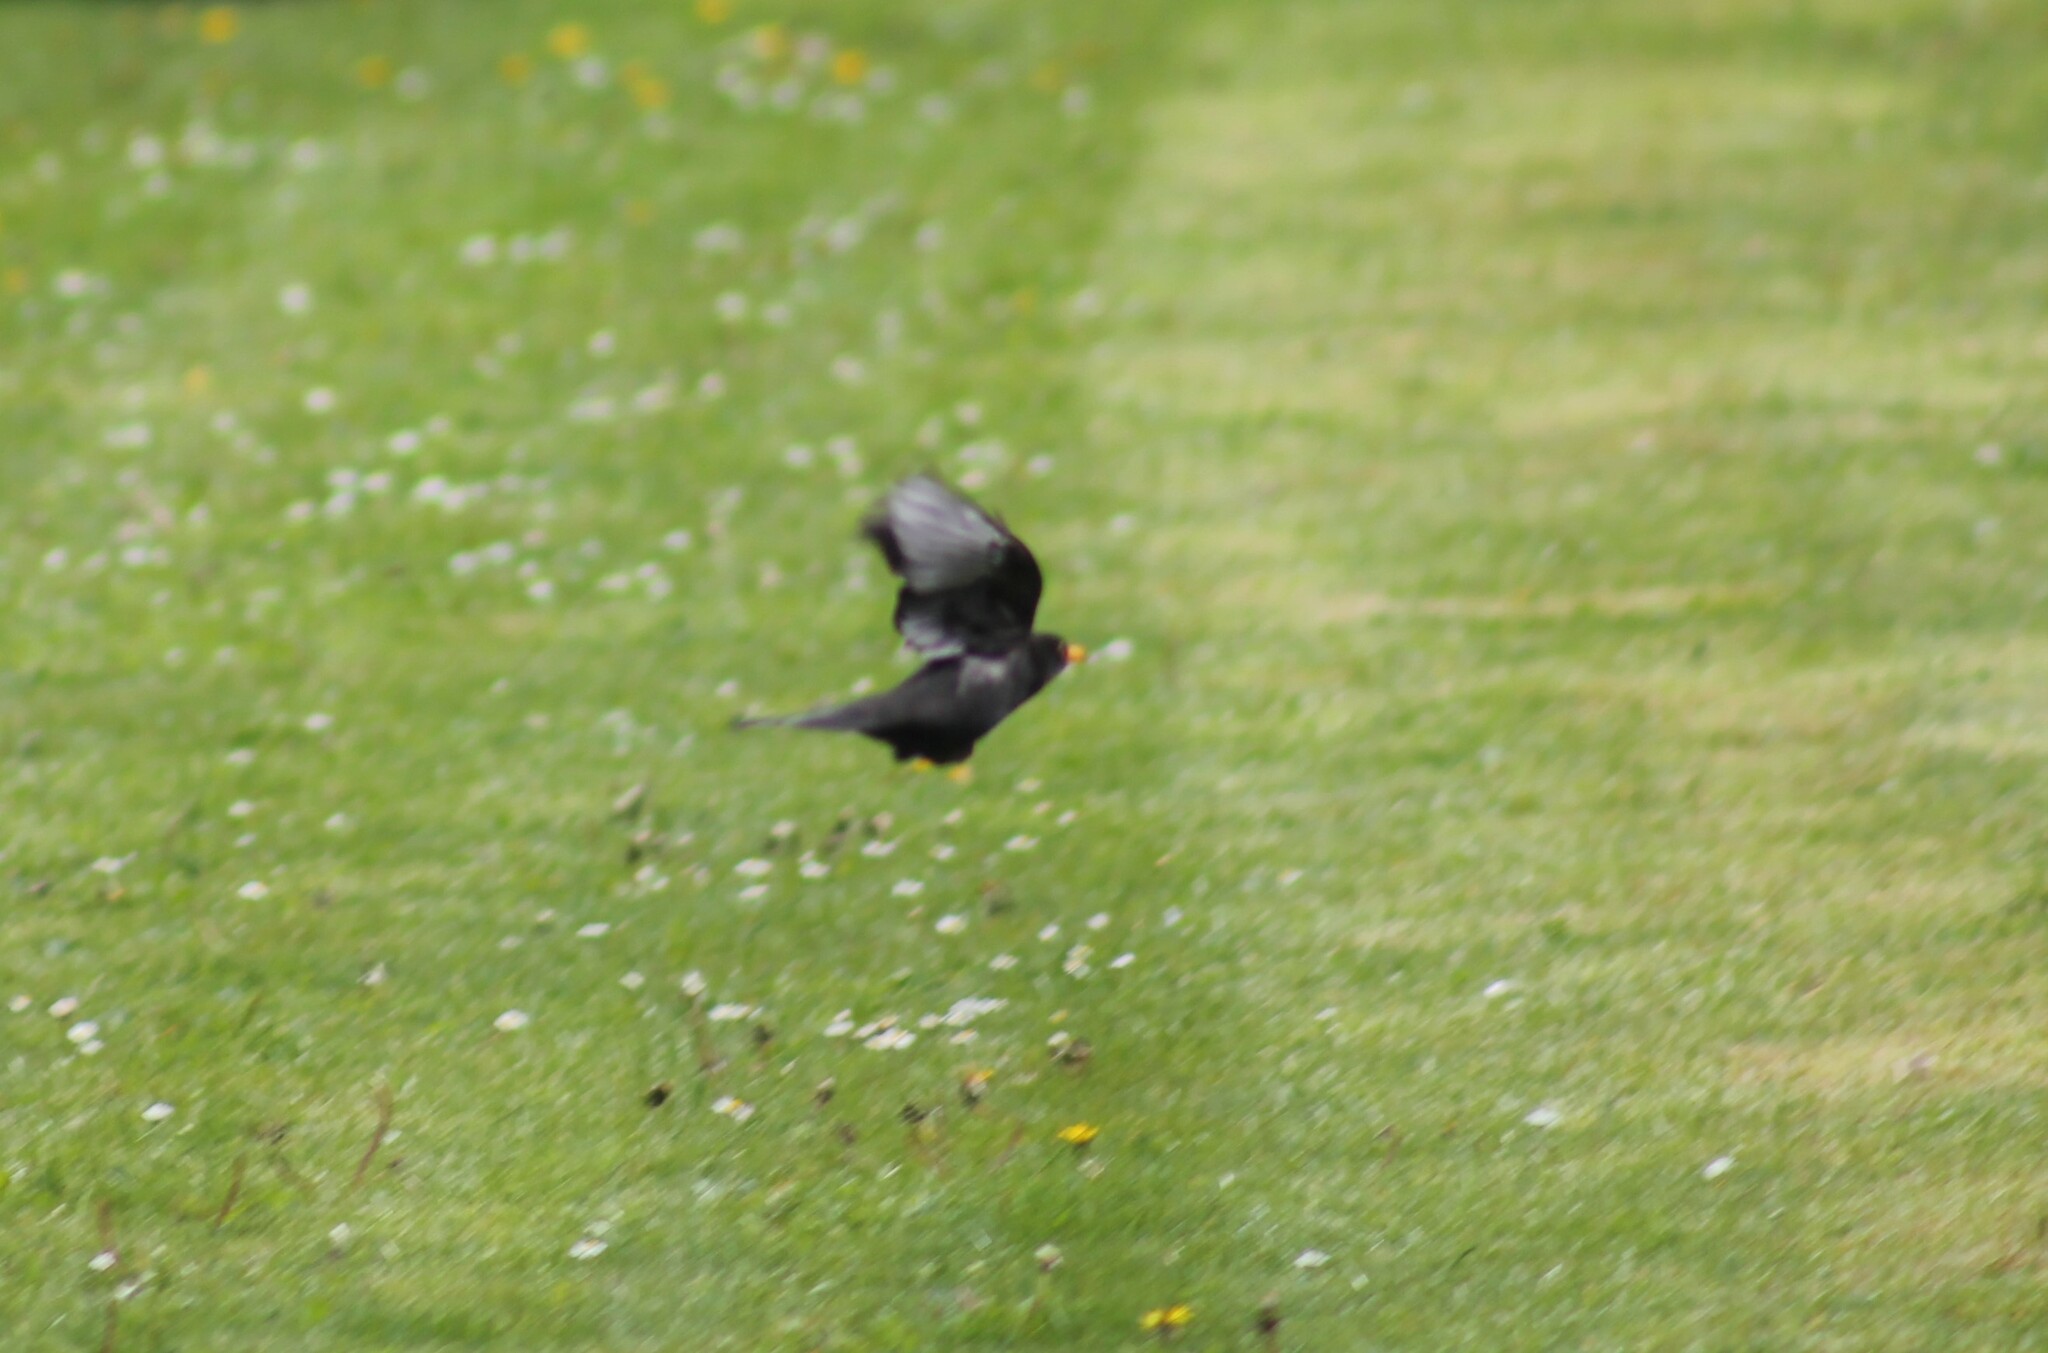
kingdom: Animalia
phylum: Chordata
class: Aves
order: Passeriformes
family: Turdidae
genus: Turdus
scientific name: Turdus merula
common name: Common blackbird
